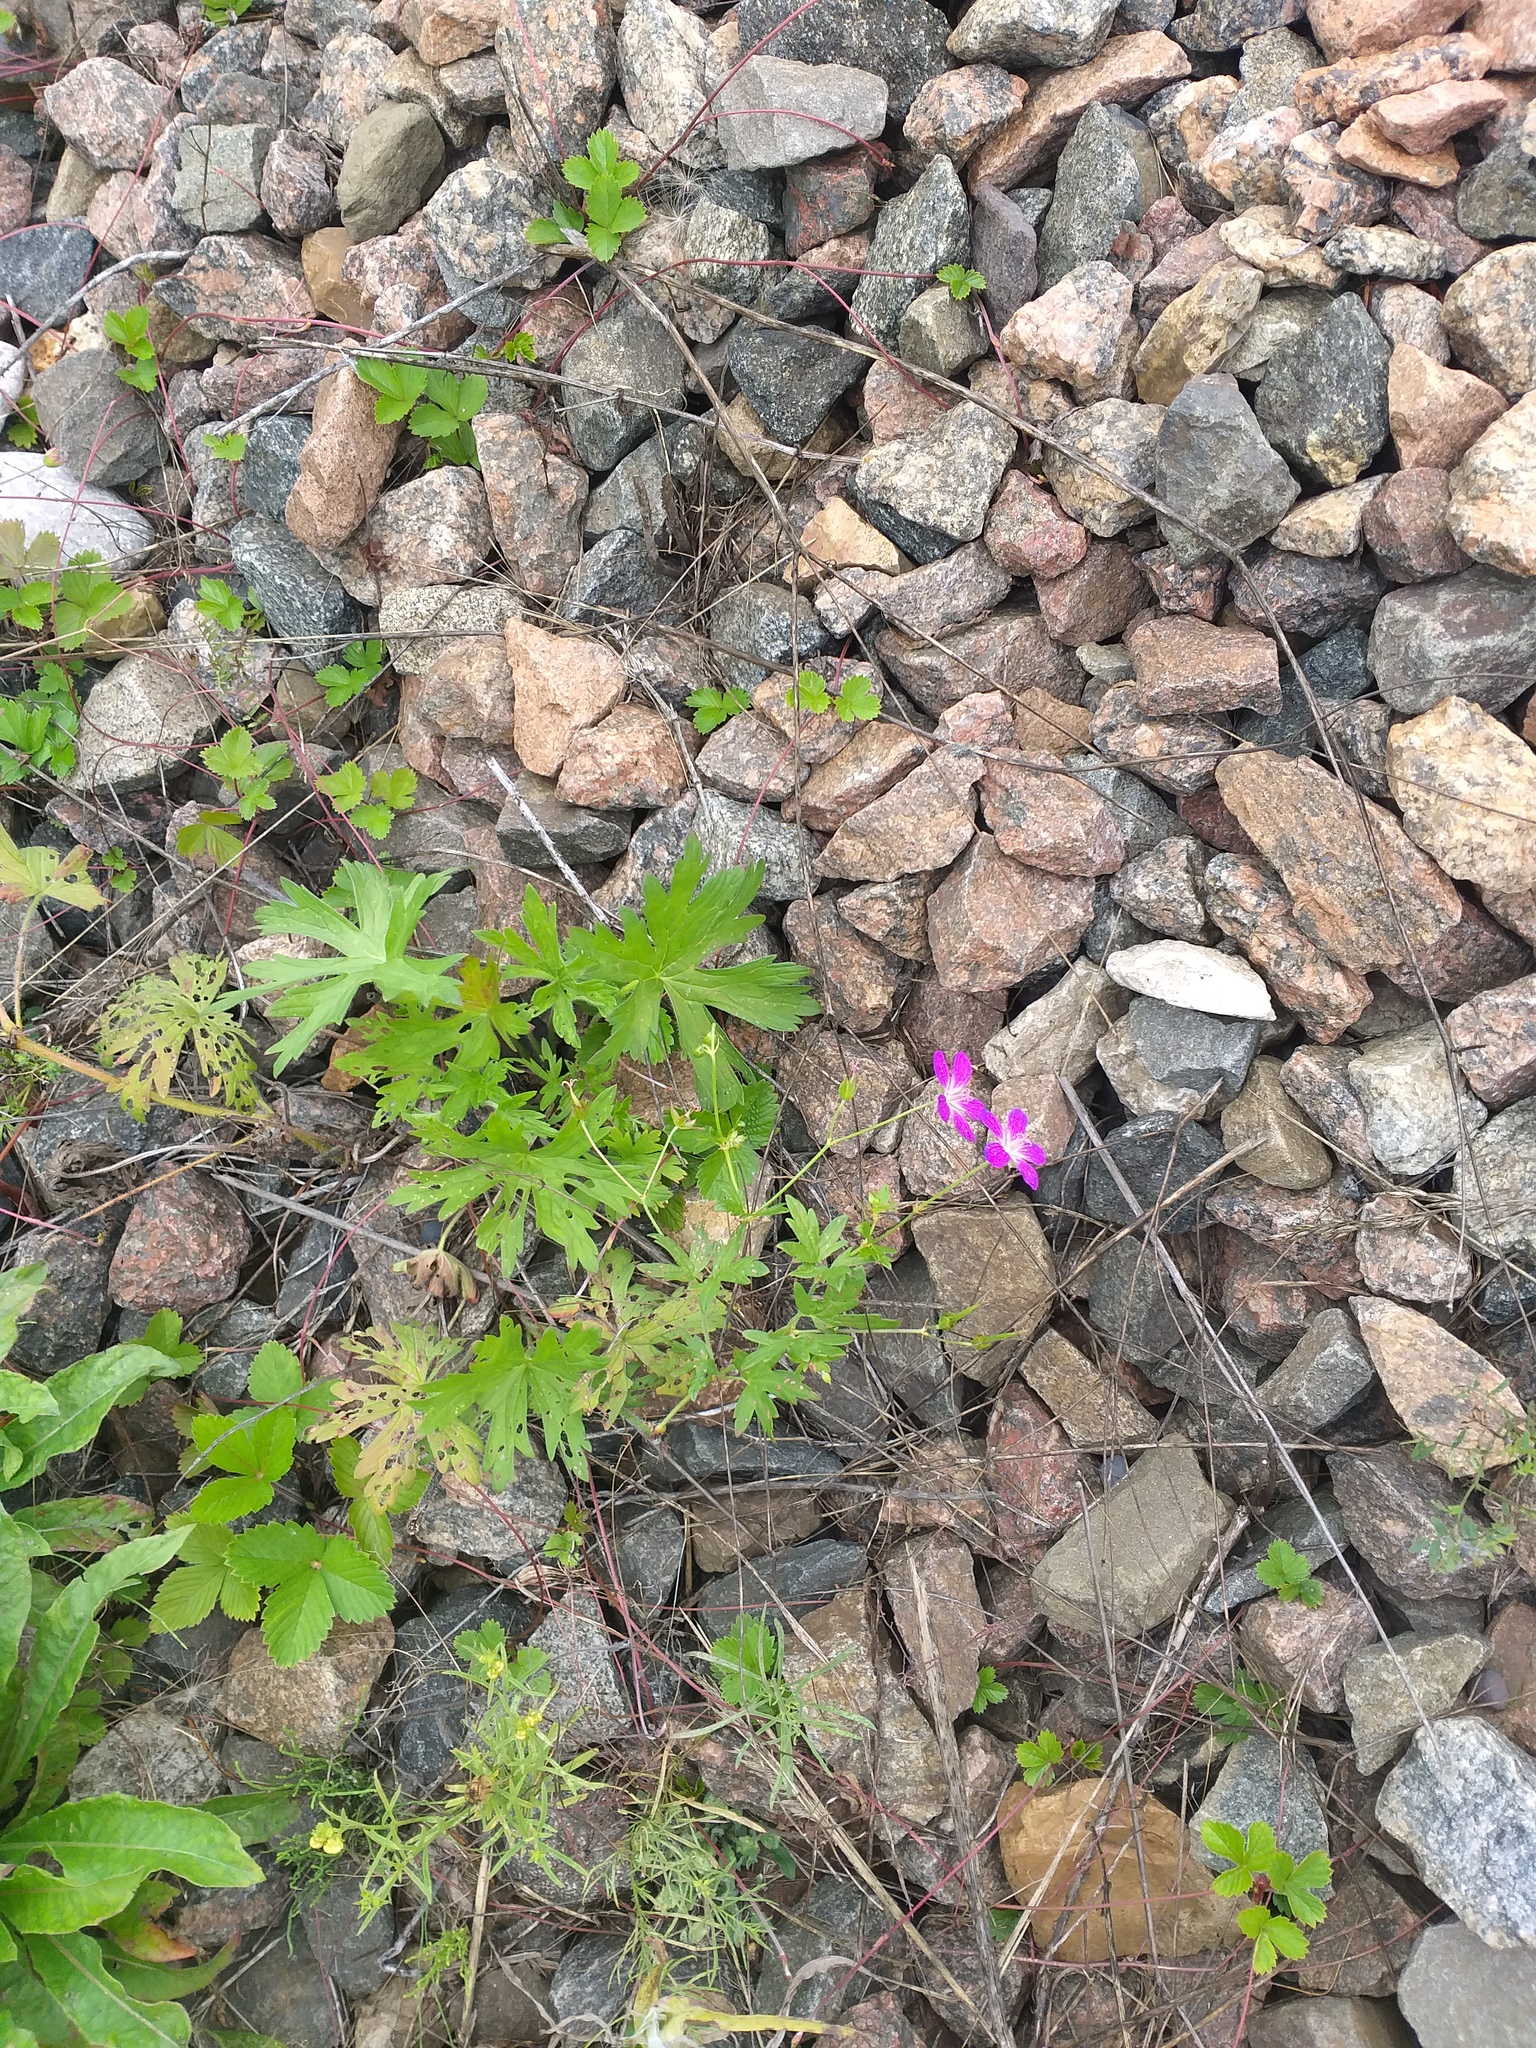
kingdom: Plantae
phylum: Tracheophyta
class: Magnoliopsida
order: Geraniales
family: Geraniaceae
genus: Geranium
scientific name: Geranium palustre
